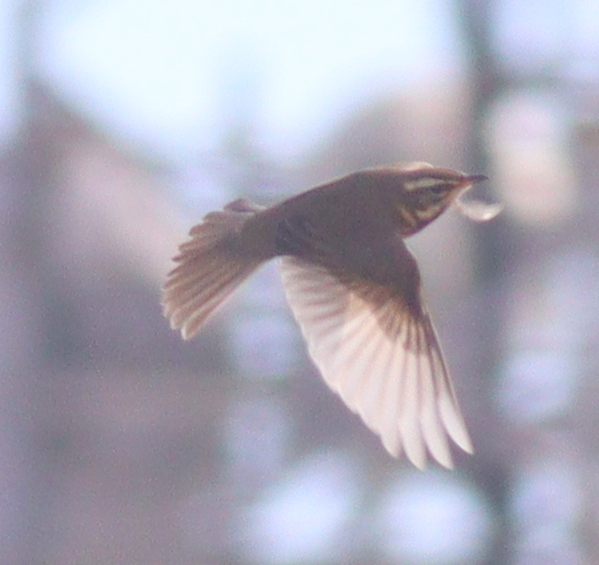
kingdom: Animalia
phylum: Chordata
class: Aves
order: Passeriformes
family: Turdidae
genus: Turdus
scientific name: Turdus iliacus
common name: Redwing
